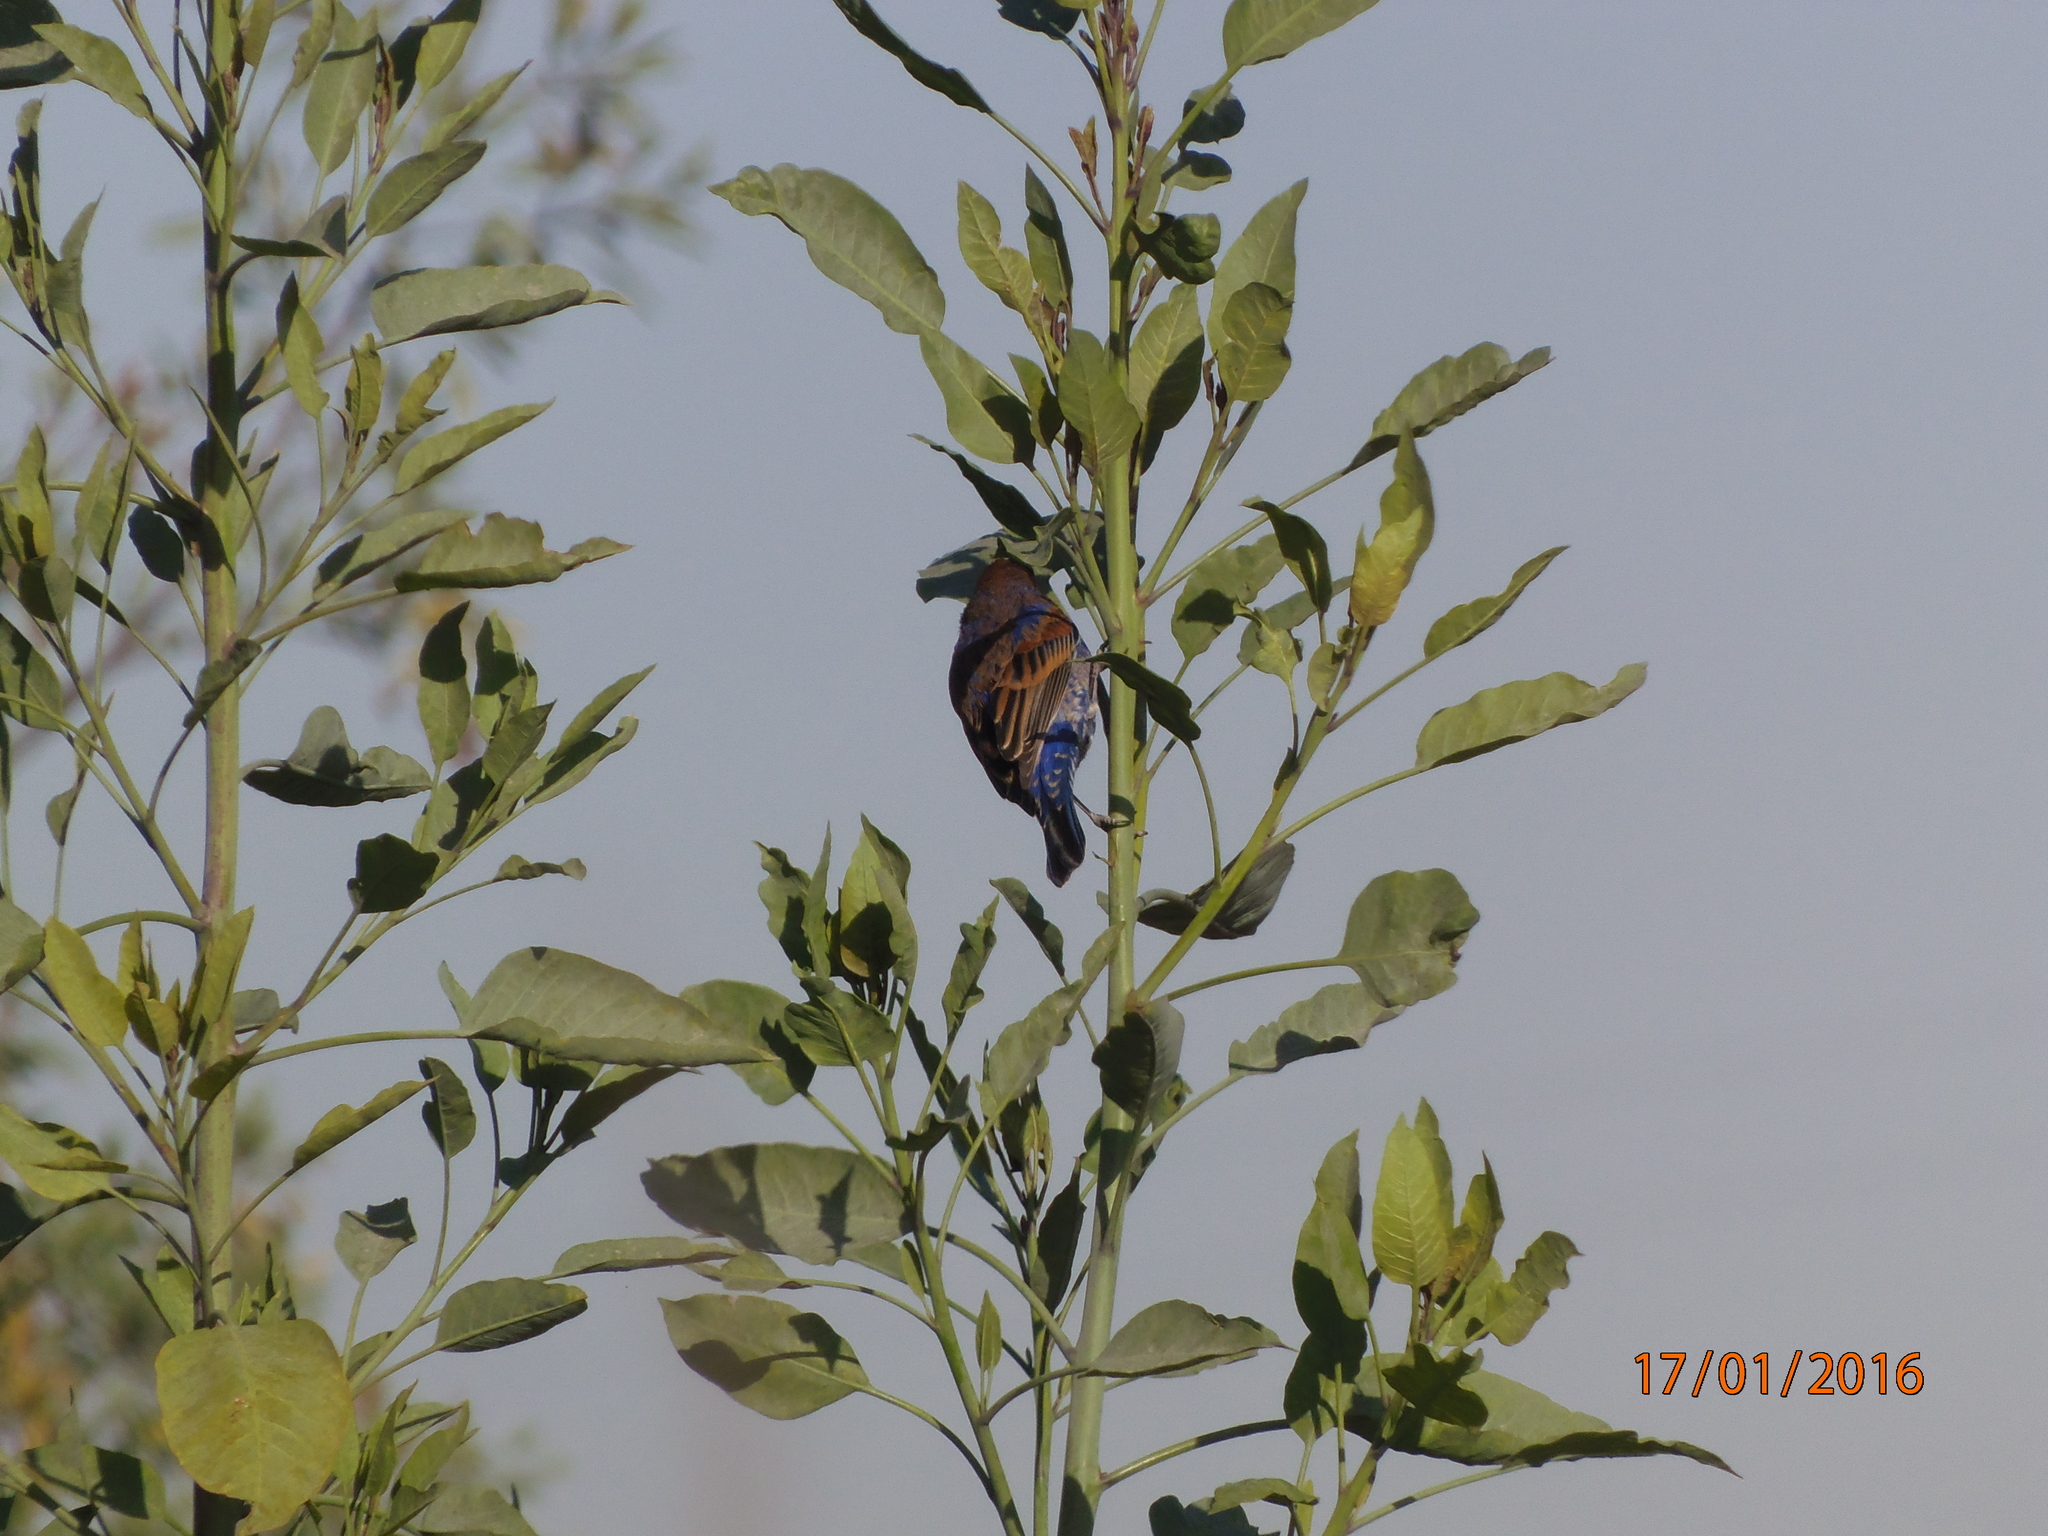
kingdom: Animalia
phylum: Chordata
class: Aves
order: Passeriformes
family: Cardinalidae
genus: Passerina
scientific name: Passerina caerulea
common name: Blue grosbeak
